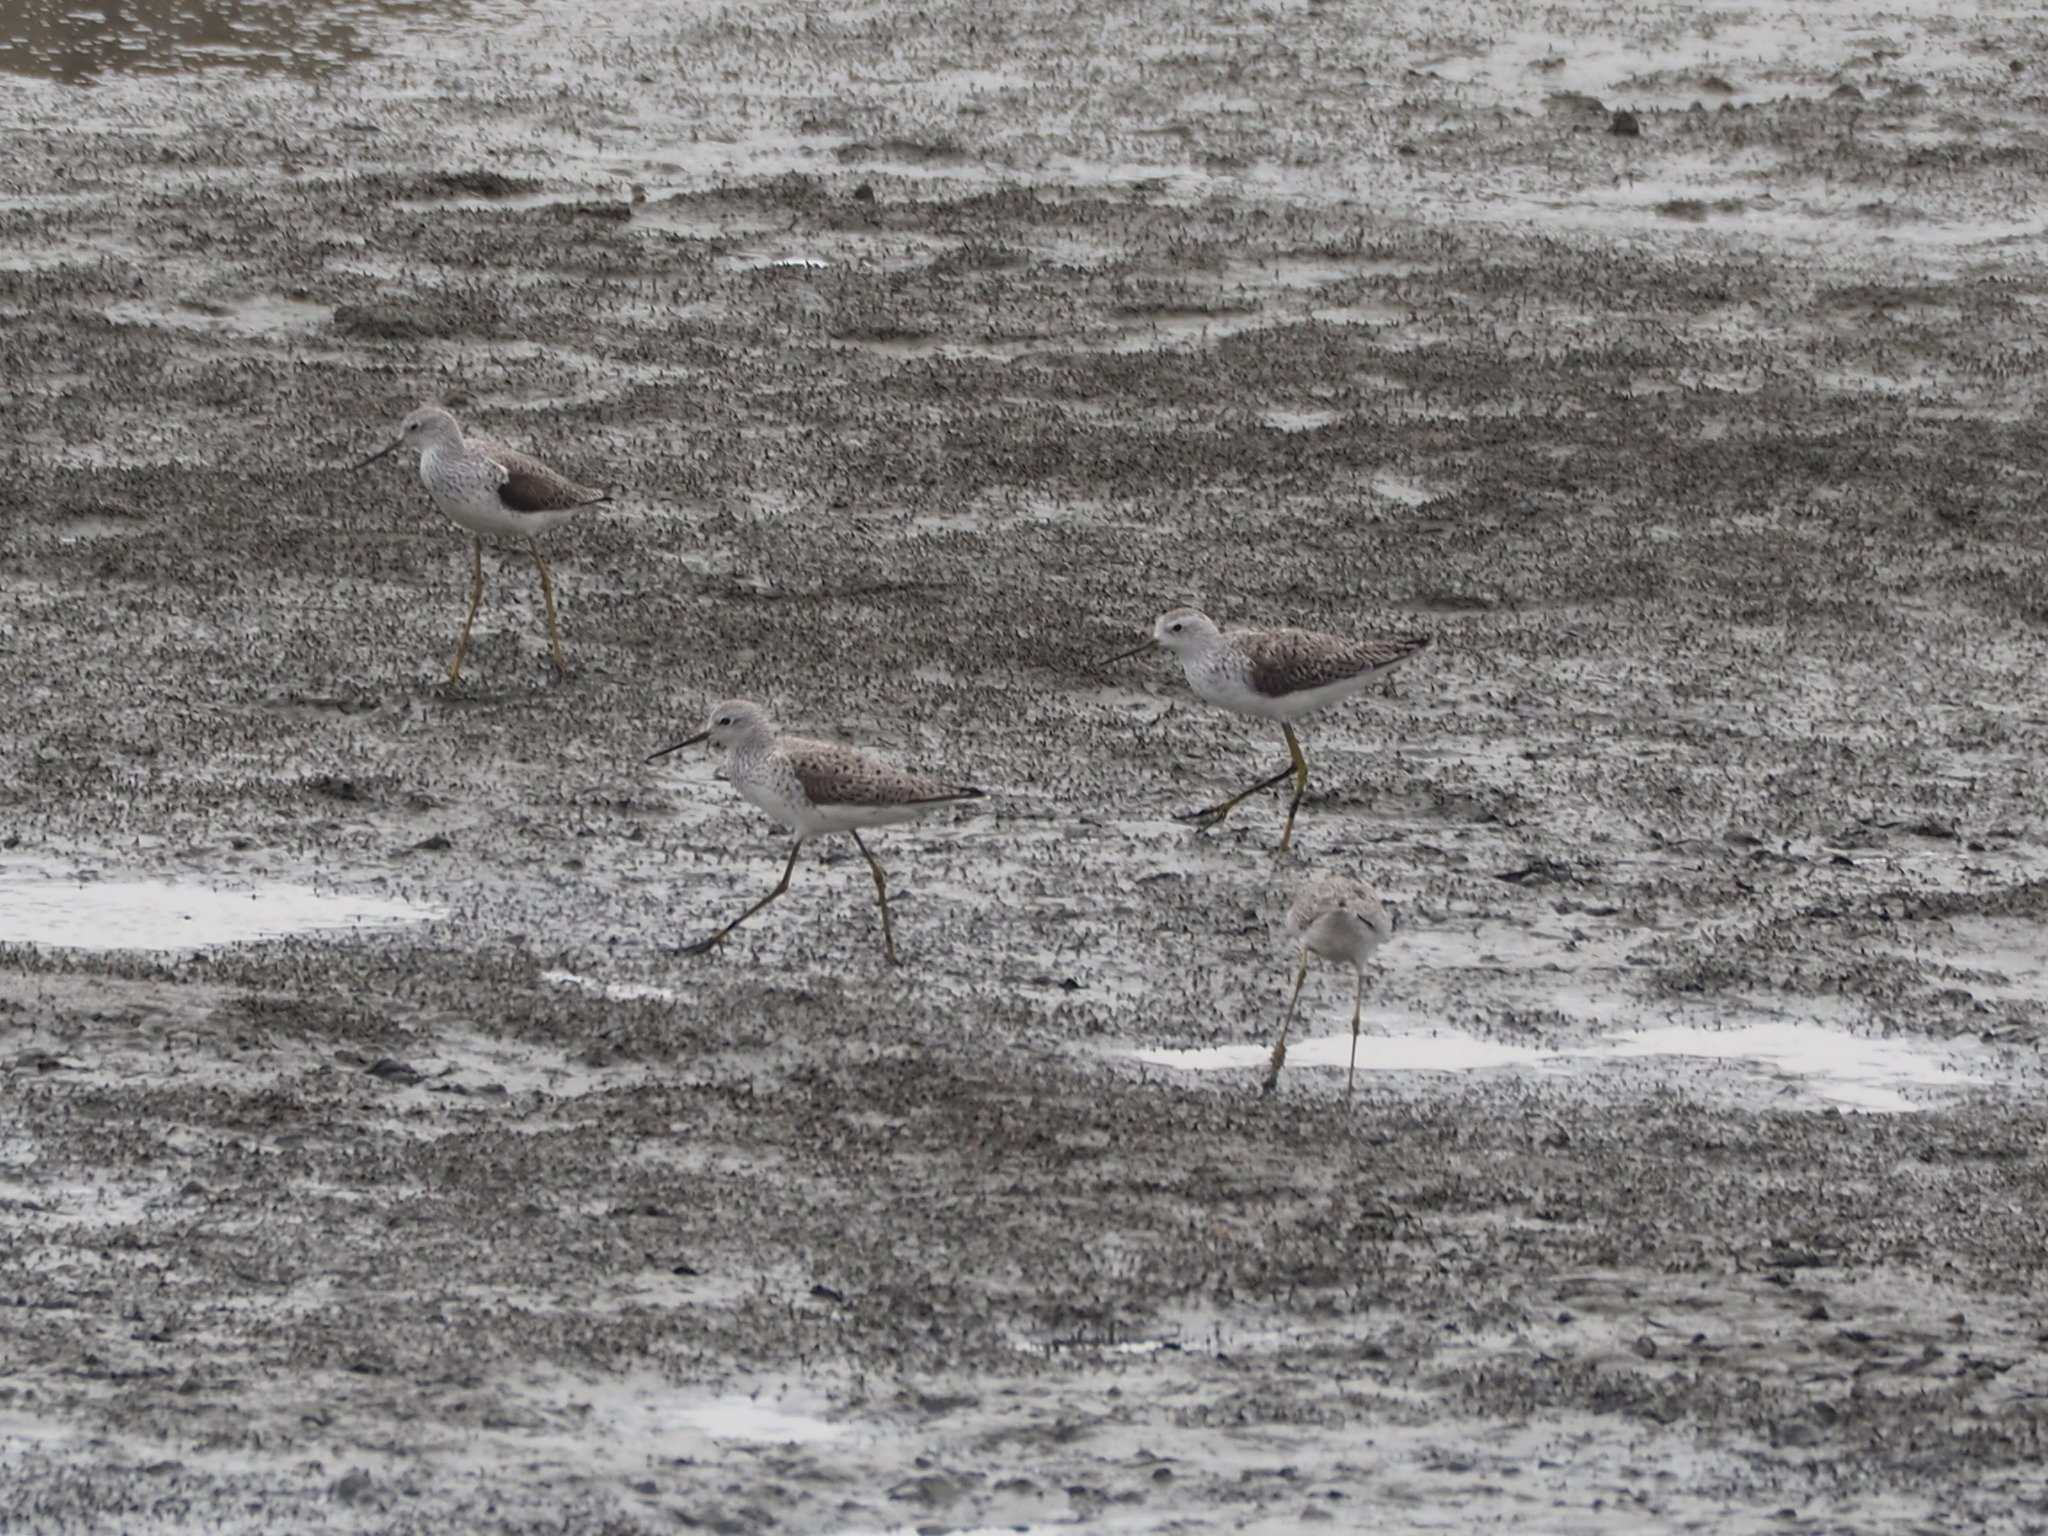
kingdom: Animalia
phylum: Chordata
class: Aves
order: Charadriiformes
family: Scolopacidae
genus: Tringa
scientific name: Tringa stagnatilis
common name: Marsh sandpiper
